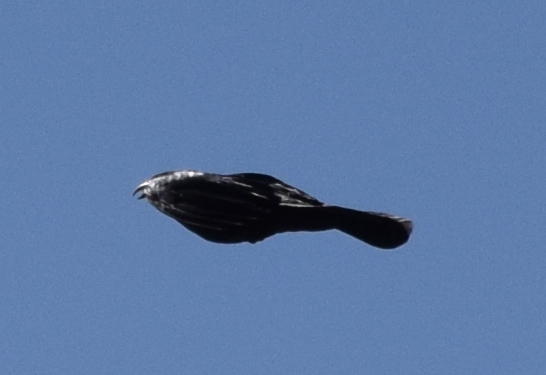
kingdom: Animalia
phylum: Chordata
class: Aves
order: Passeriformes
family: Icteridae
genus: Quiscalus
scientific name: Quiscalus mexicanus
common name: Great-tailed grackle
